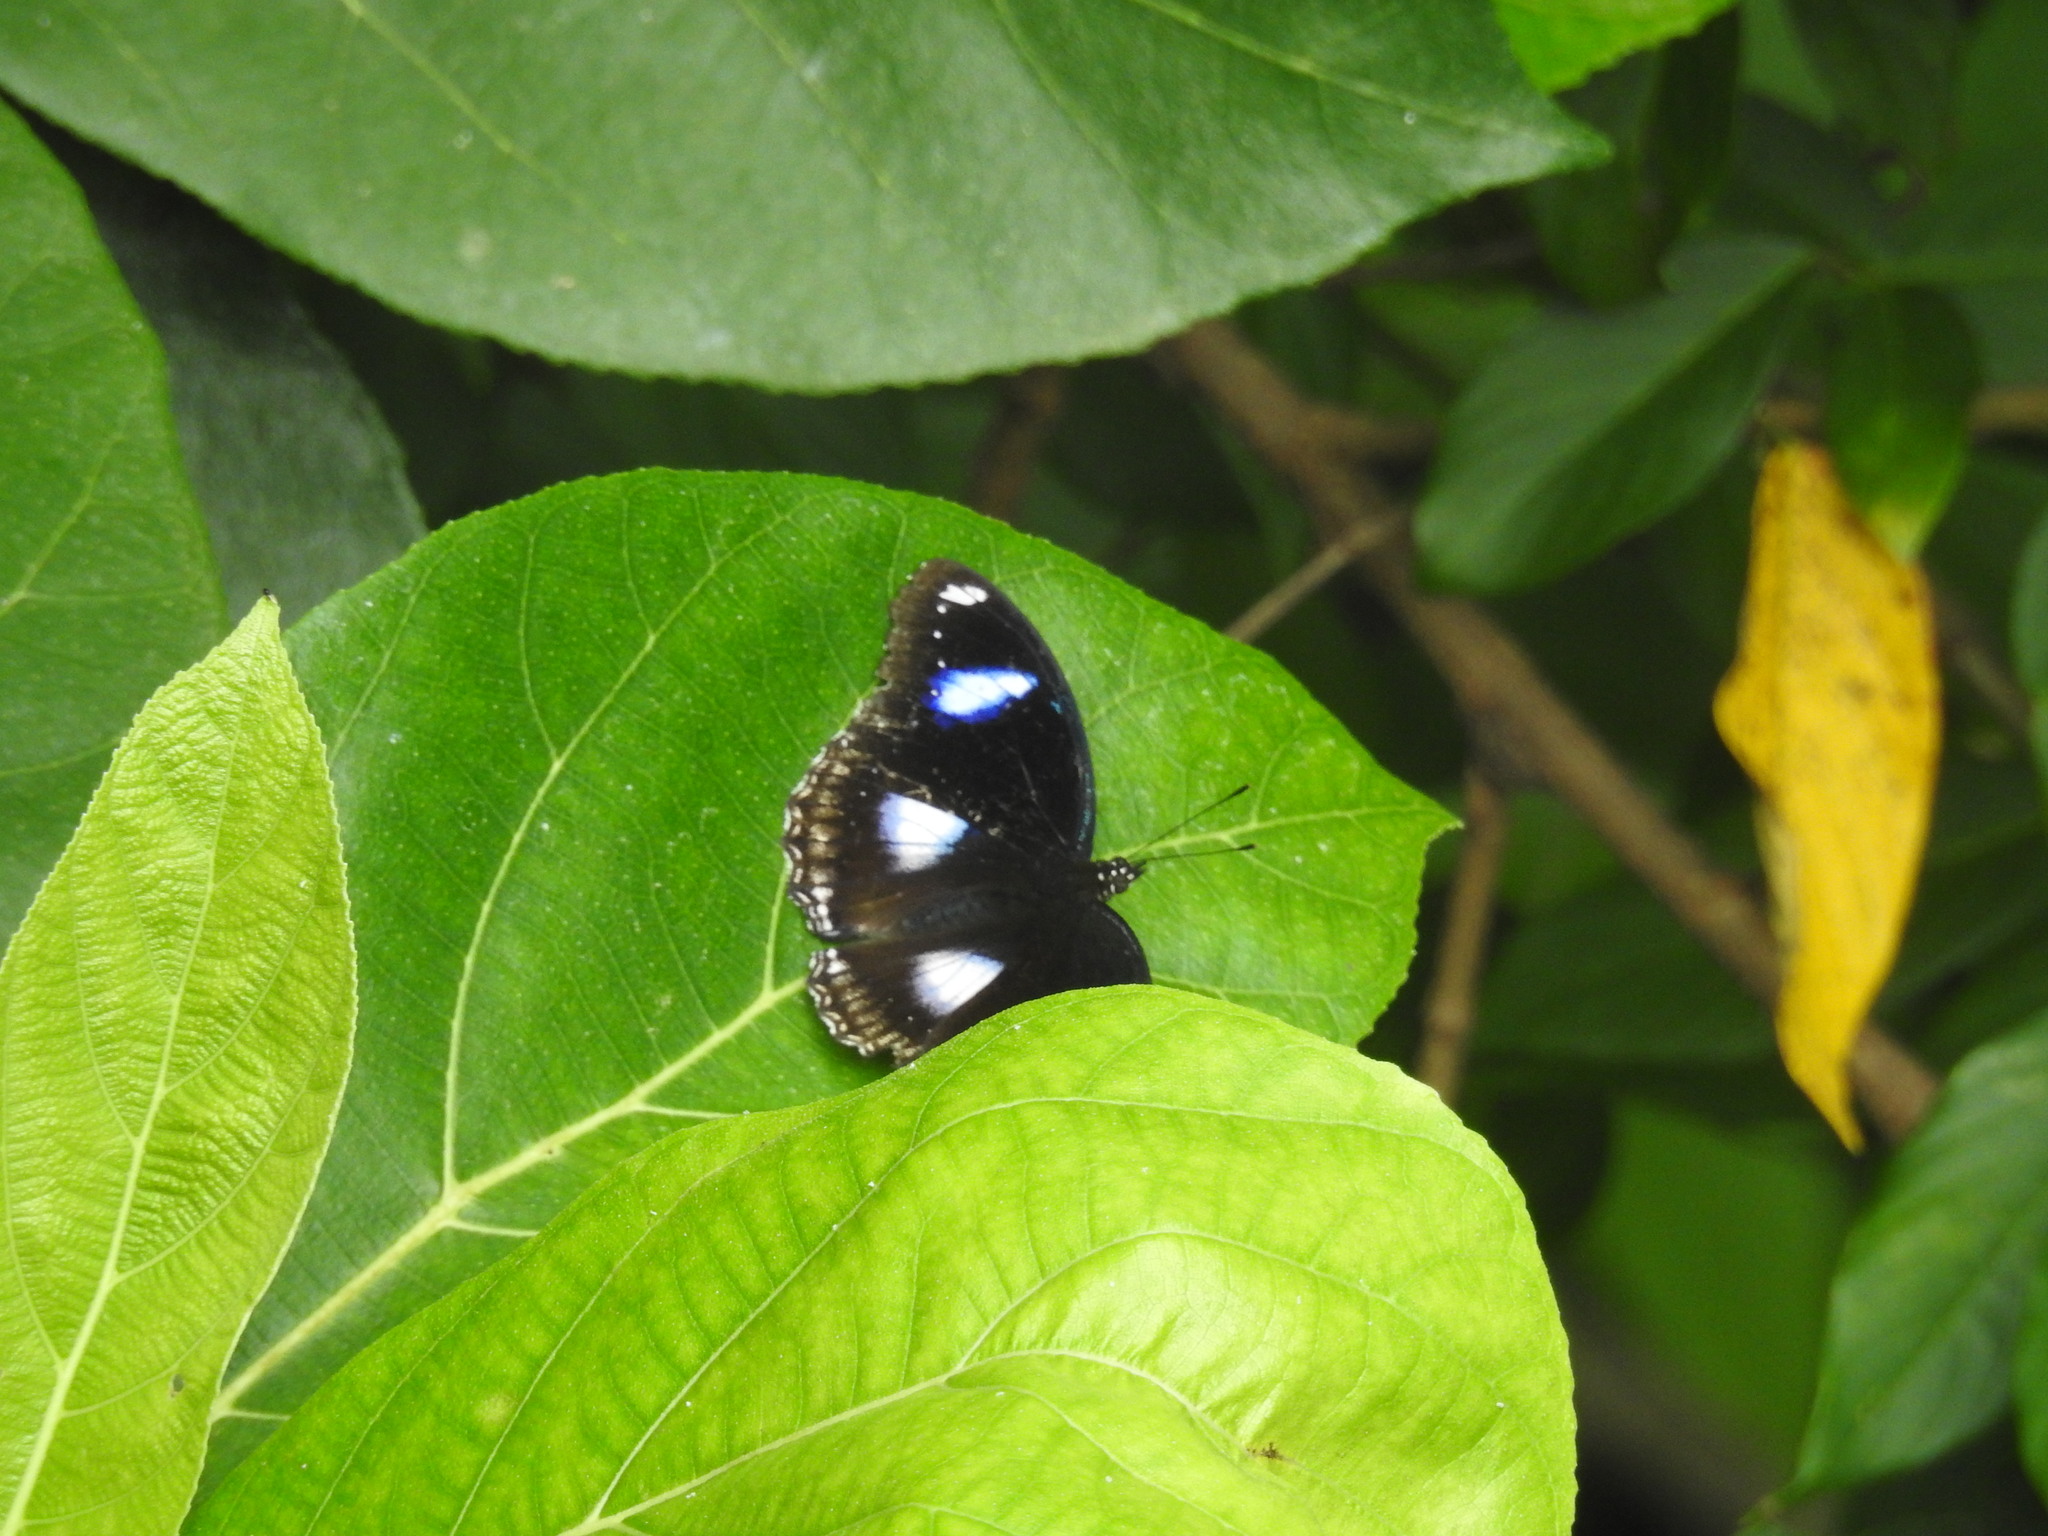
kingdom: Animalia
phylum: Arthropoda
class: Insecta
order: Lepidoptera
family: Nymphalidae
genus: Hypolimnas
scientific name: Hypolimnas bolina
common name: Great eggfly
